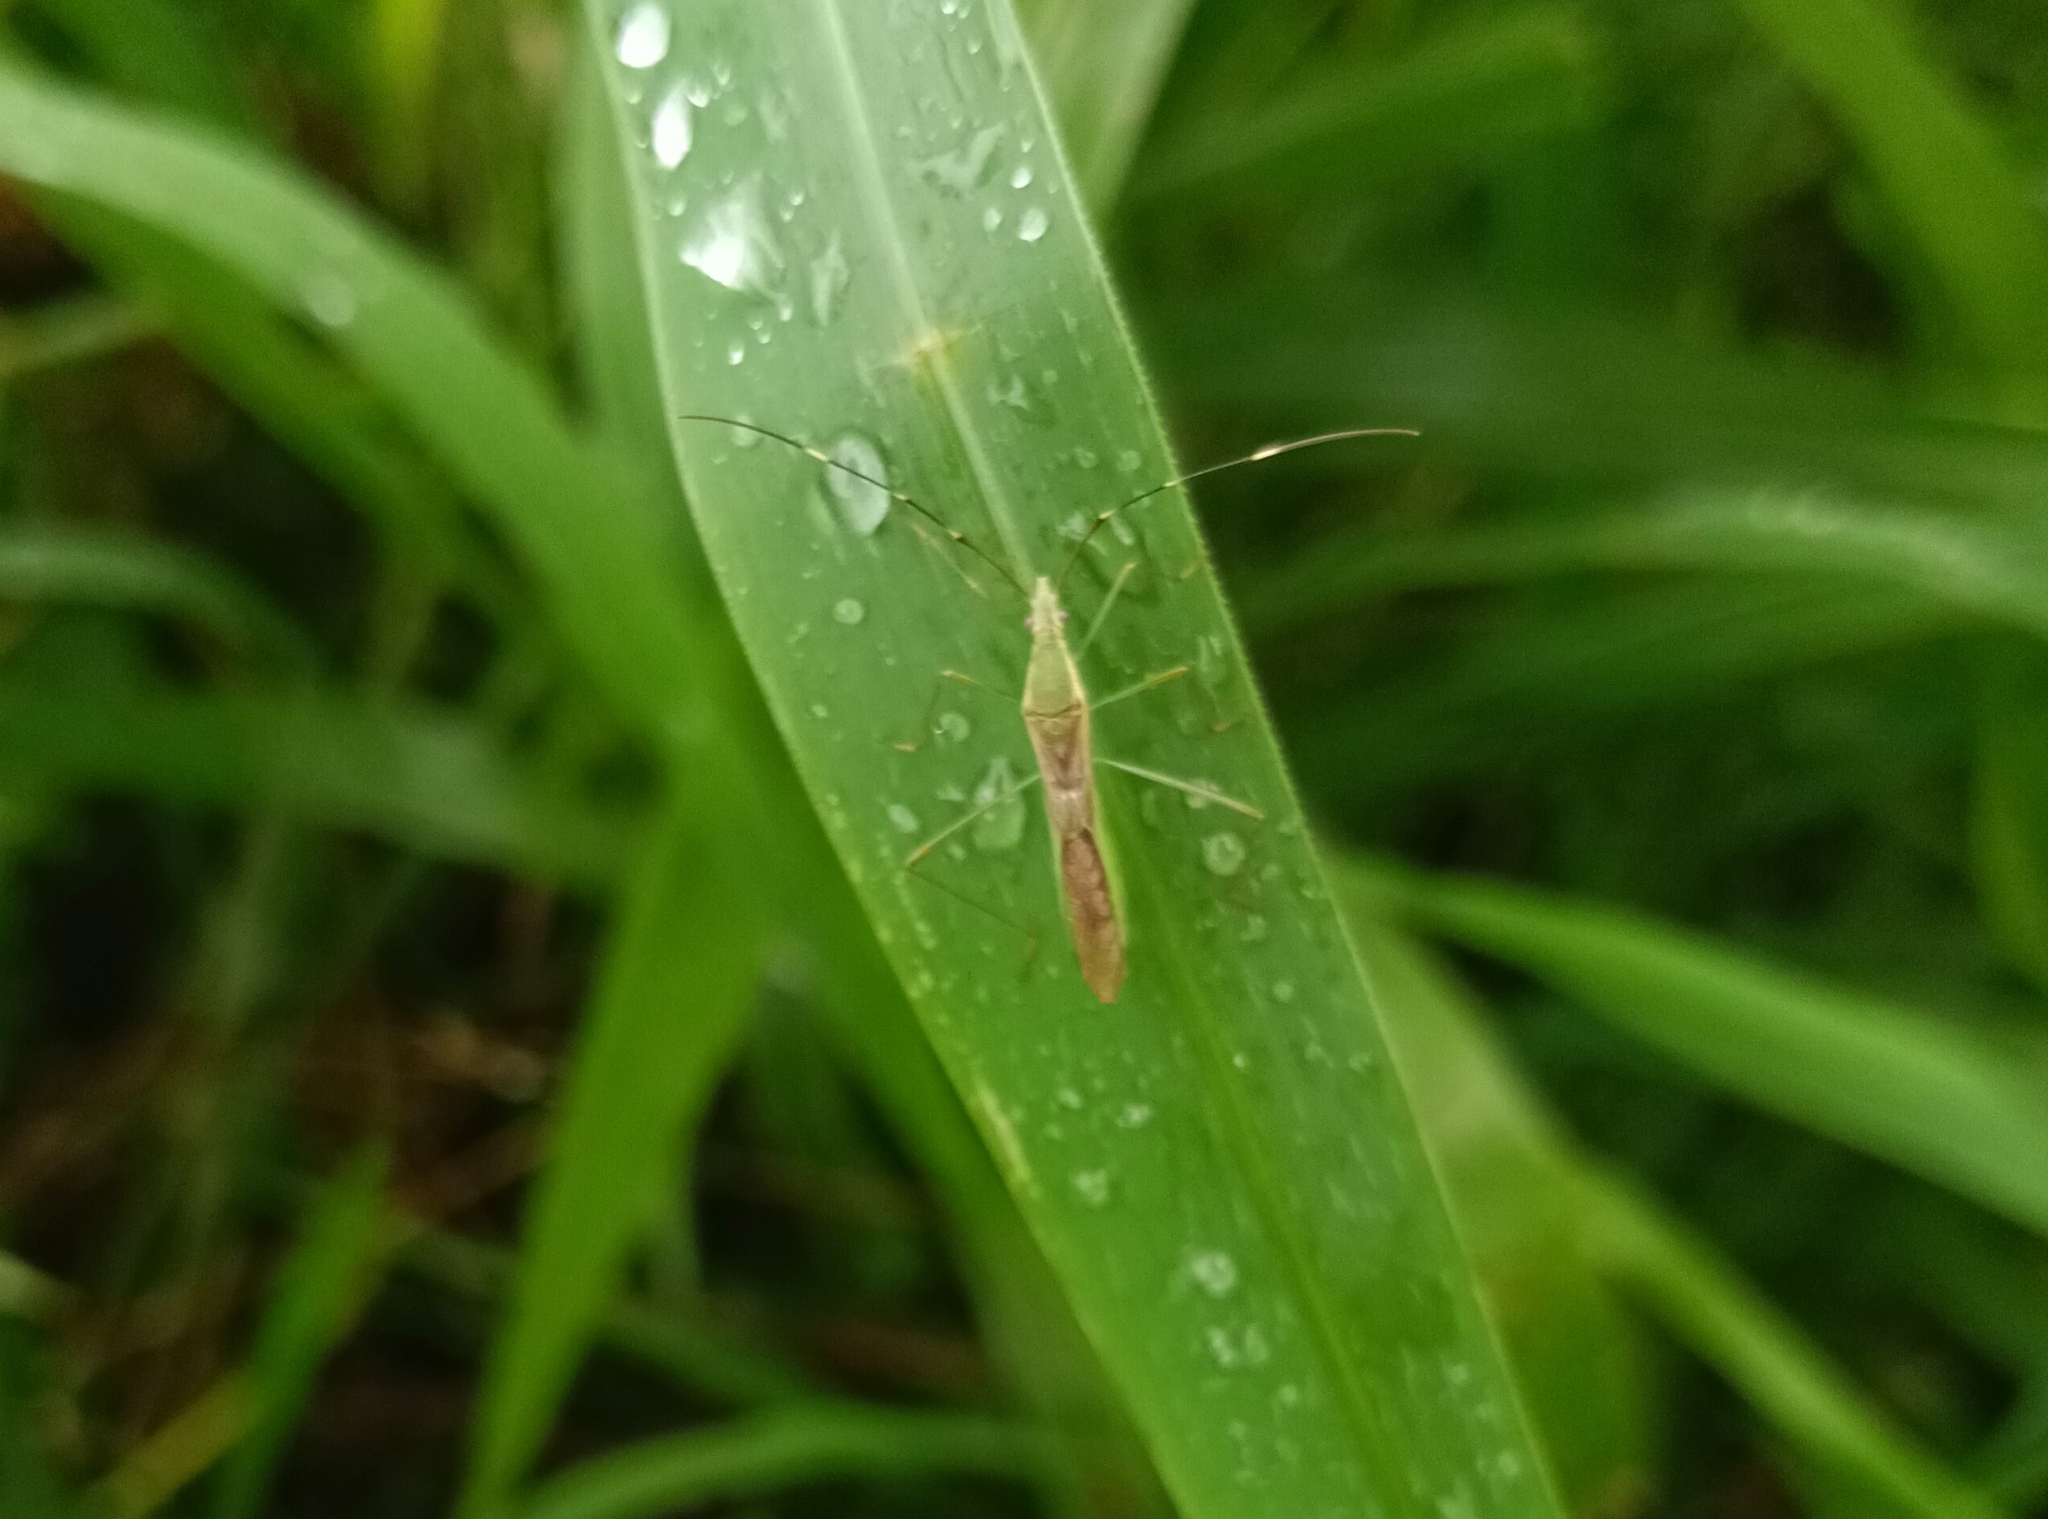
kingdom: Animalia
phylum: Arthropoda
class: Insecta
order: Hemiptera
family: Alydidae
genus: Leptocorisa
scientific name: Leptocorisa acuta
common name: Gandhi bug
